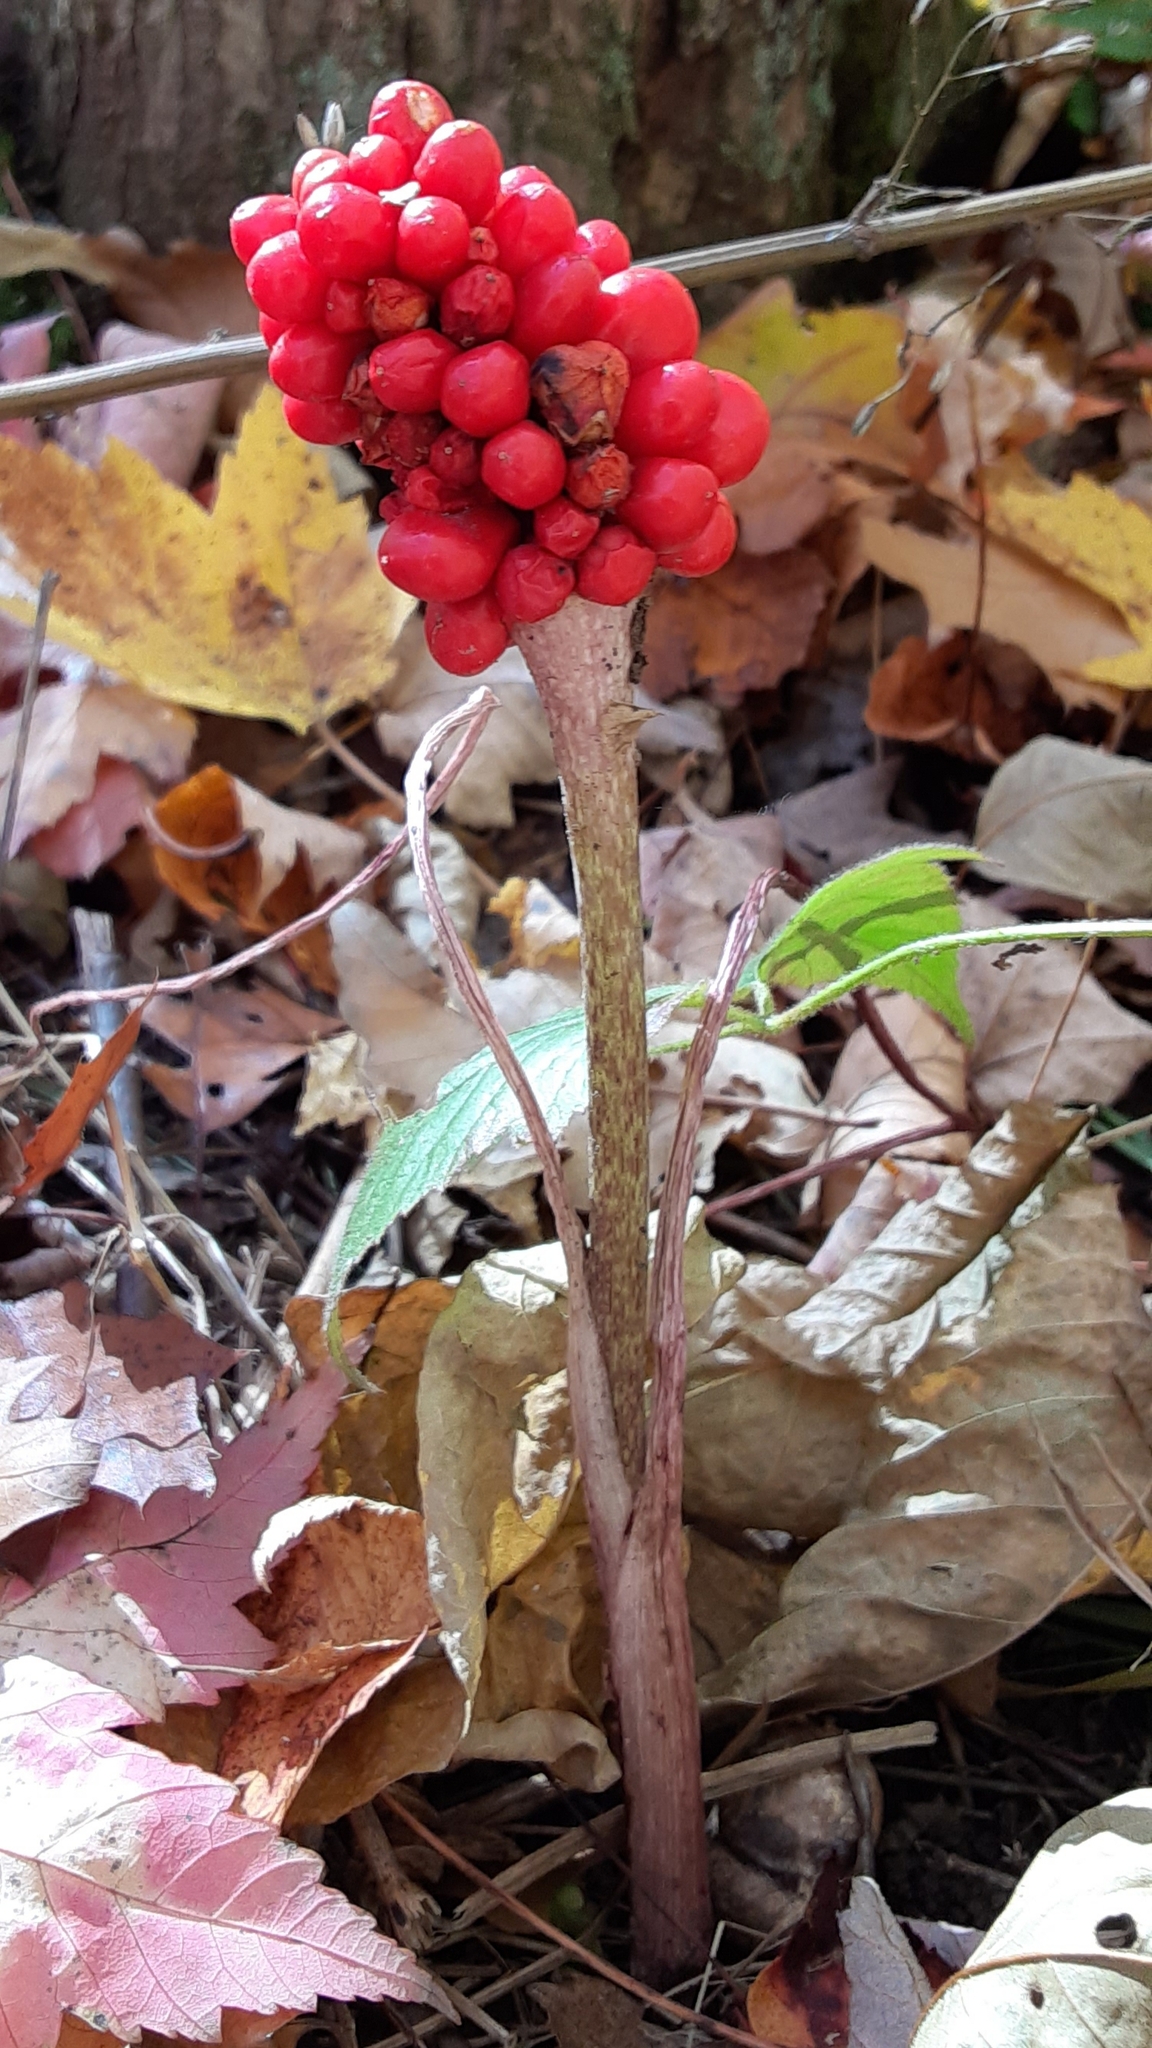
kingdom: Plantae
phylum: Tracheophyta
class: Liliopsida
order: Alismatales
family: Araceae
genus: Arisaema
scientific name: Arisaema triphyllum
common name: Jack-in-the-pulpit
